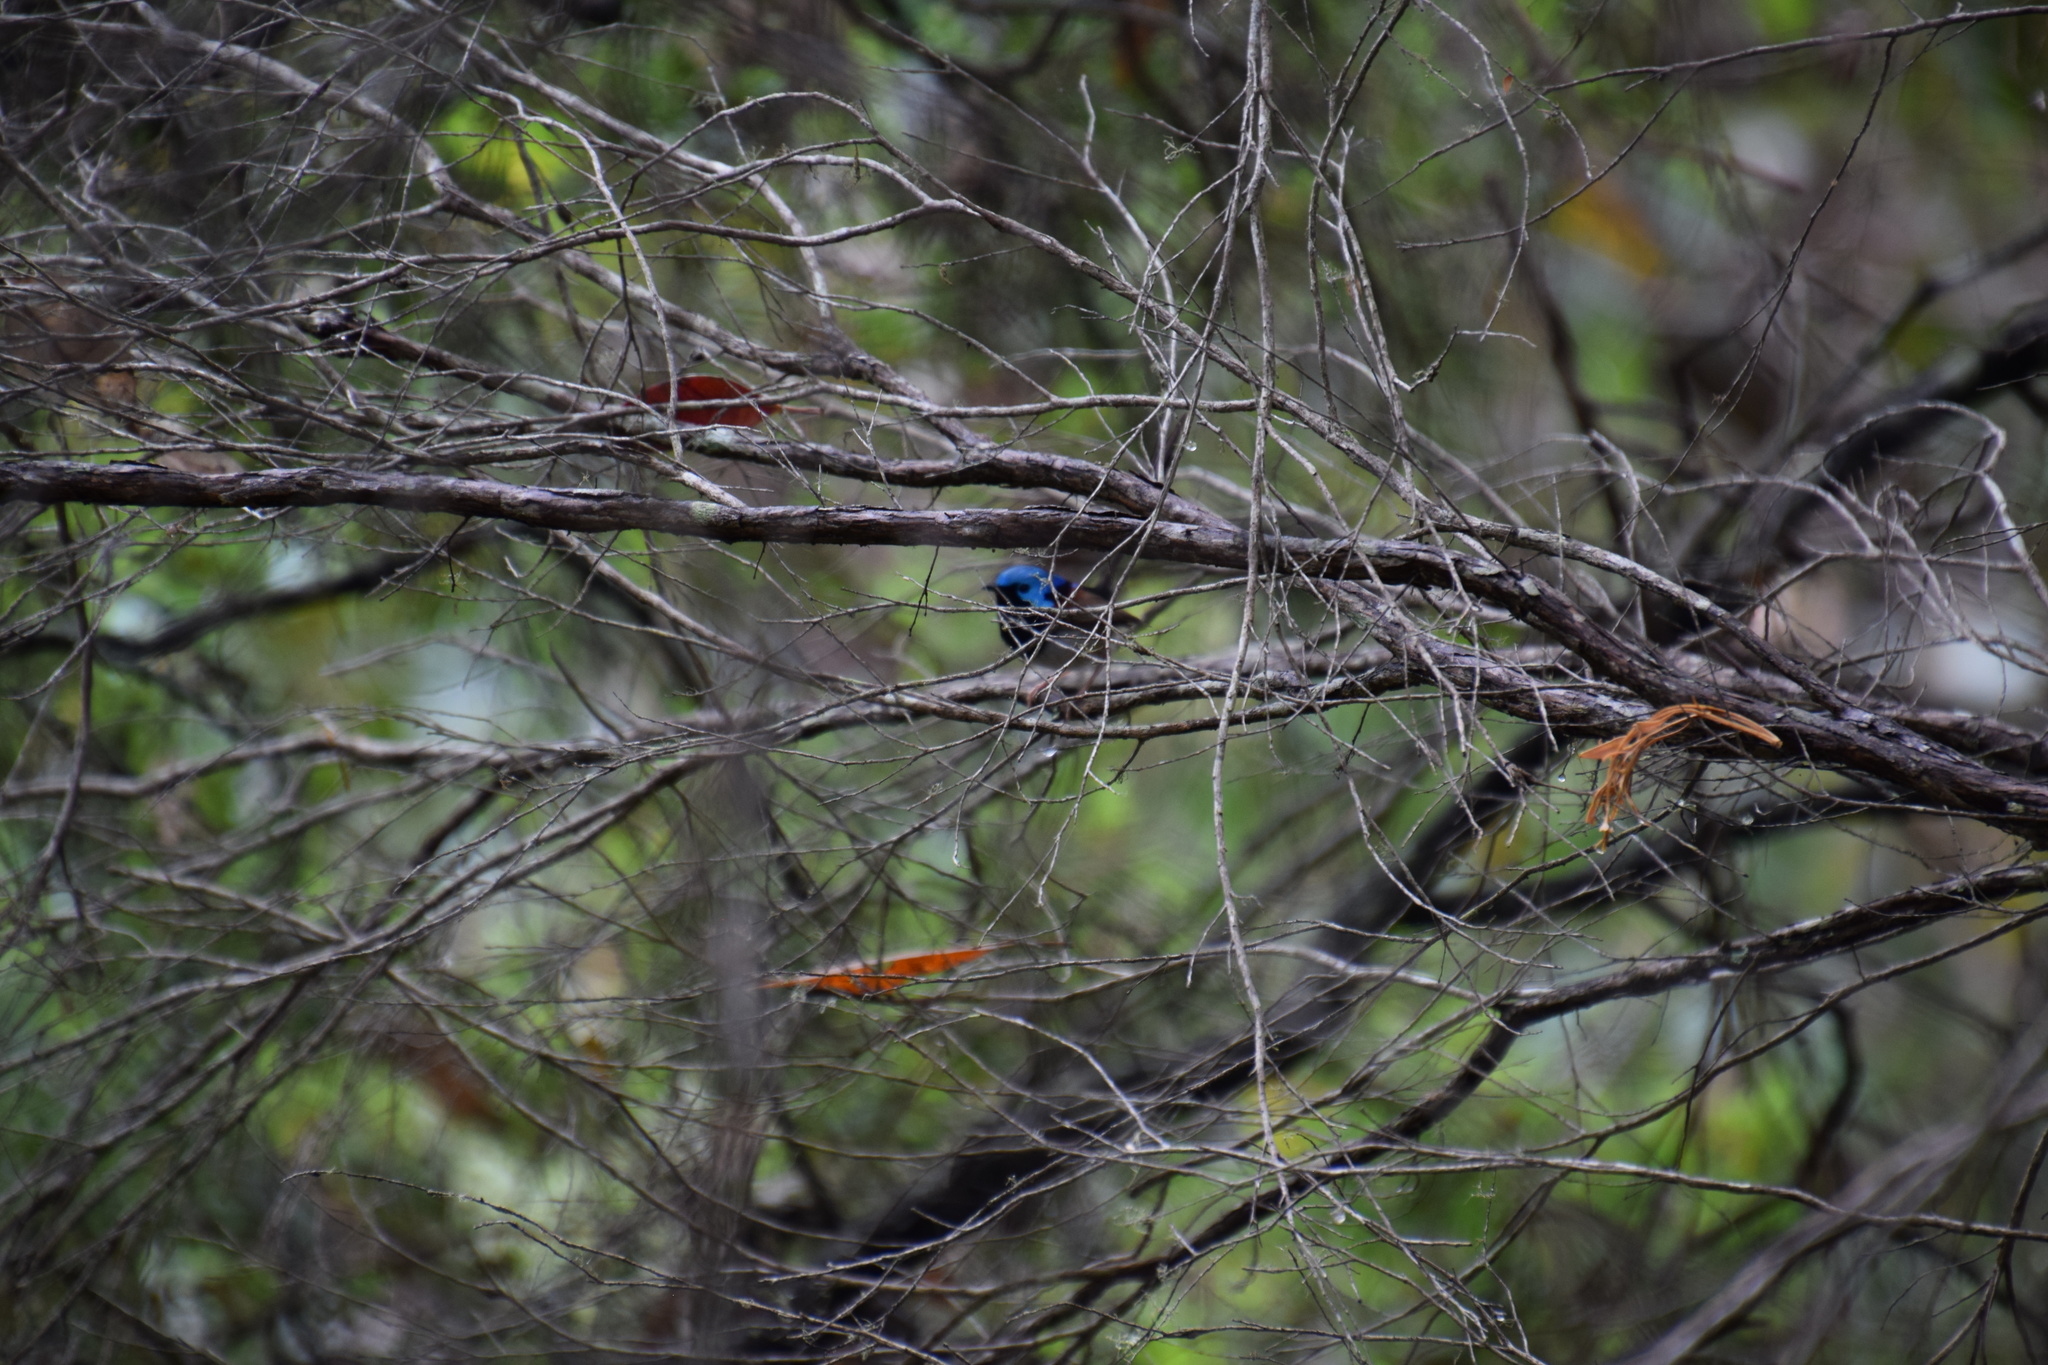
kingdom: Animalia
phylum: Chordata
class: Aves
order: Passeriformes
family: Maluridae
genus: Malurus
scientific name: Malurus lamberti
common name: Variegated fairywren
